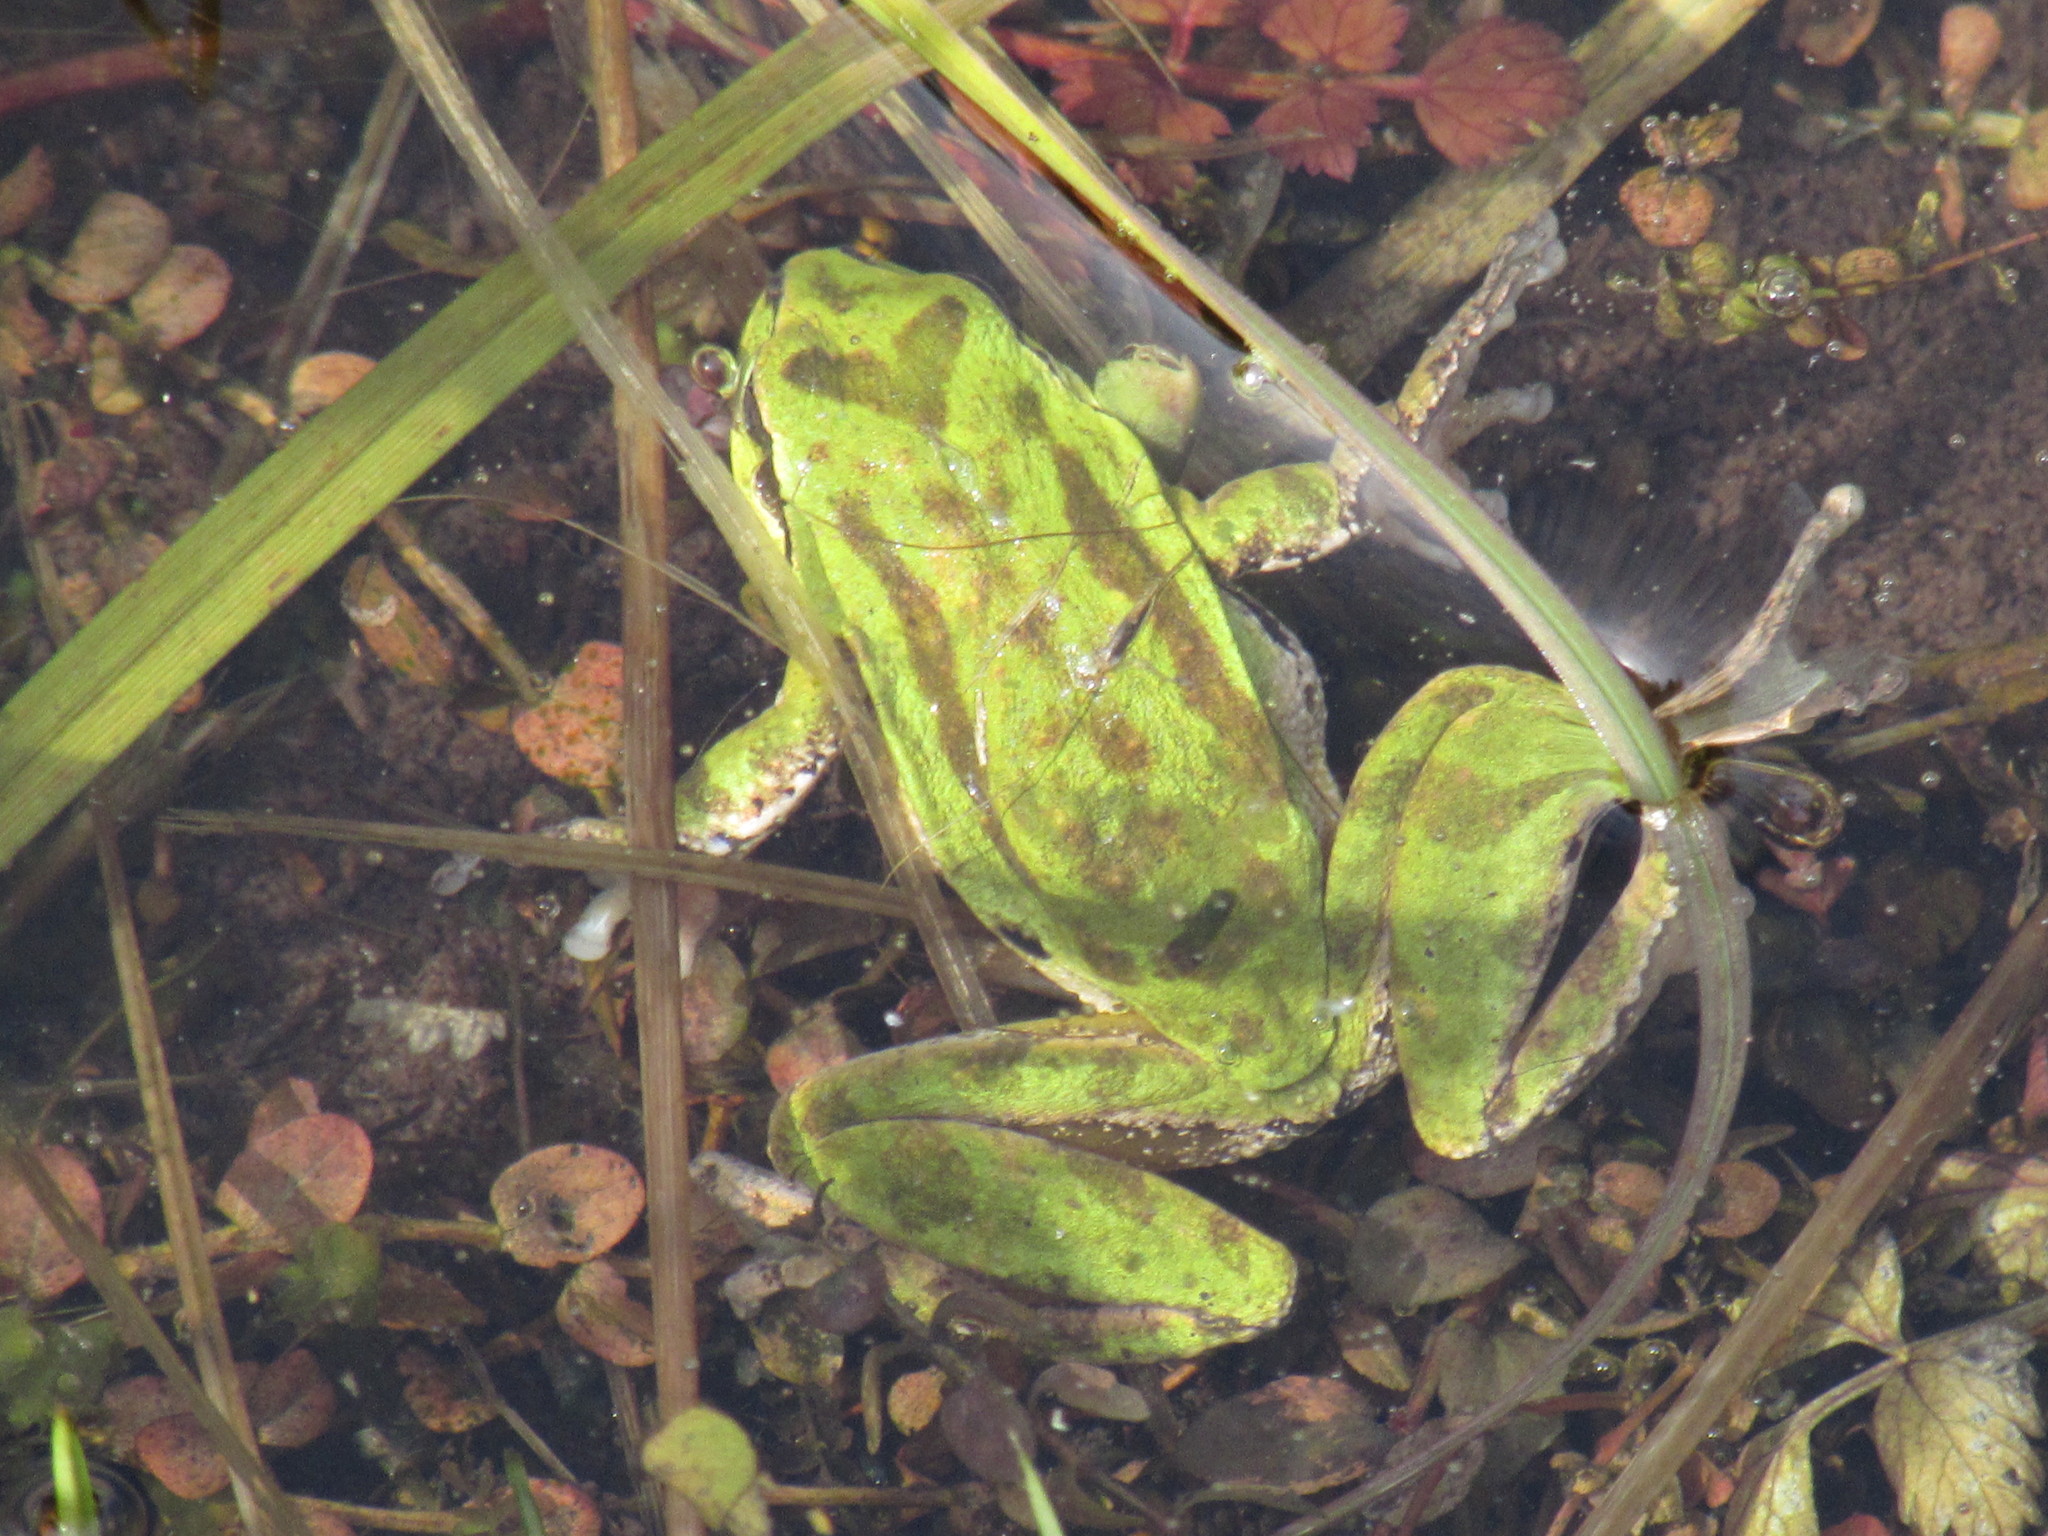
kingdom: Animalia
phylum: Chordata
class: Amphibia
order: Anura
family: Hylidae
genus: Pseudacris
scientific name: Pseudacris regilla
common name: Pacific chorus frog
